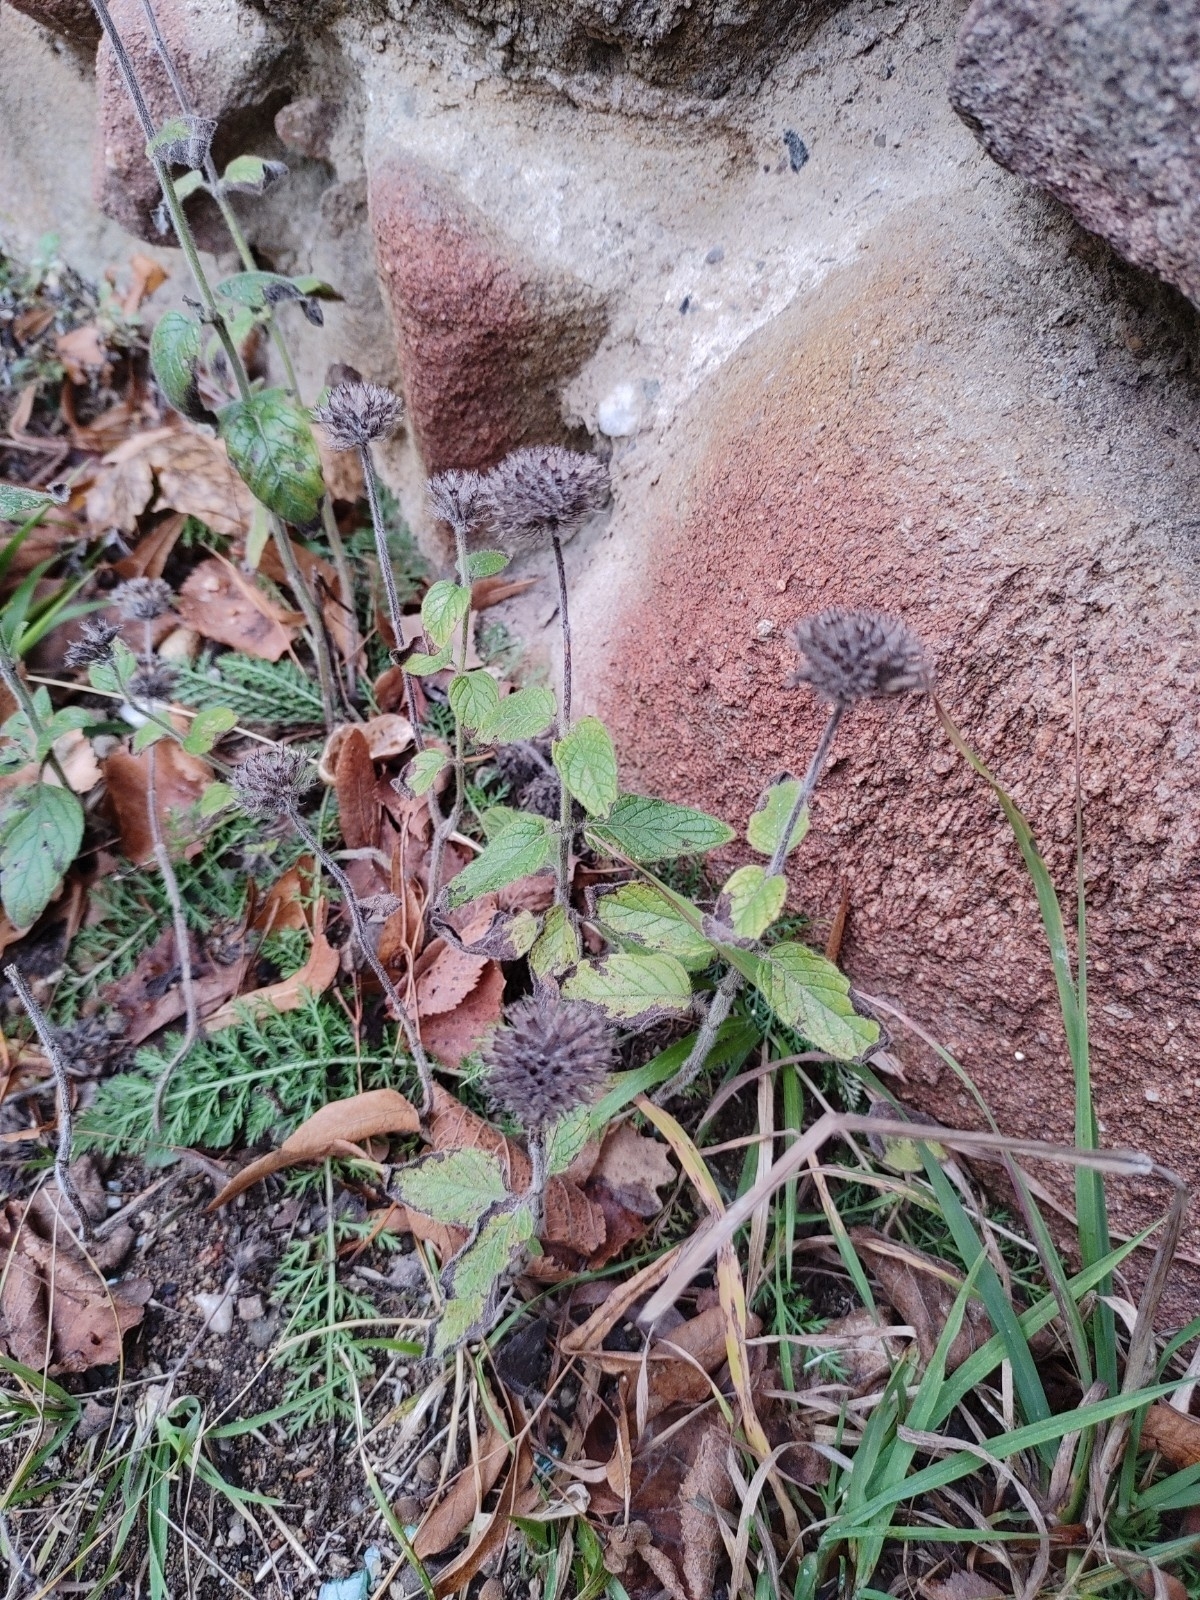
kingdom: Plantae
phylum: Tracheophyta
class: Magnoliopsida
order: Lamiales
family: Lamiaceae
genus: Clinopodium
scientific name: Clinopodium vulgare
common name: Wild basil
